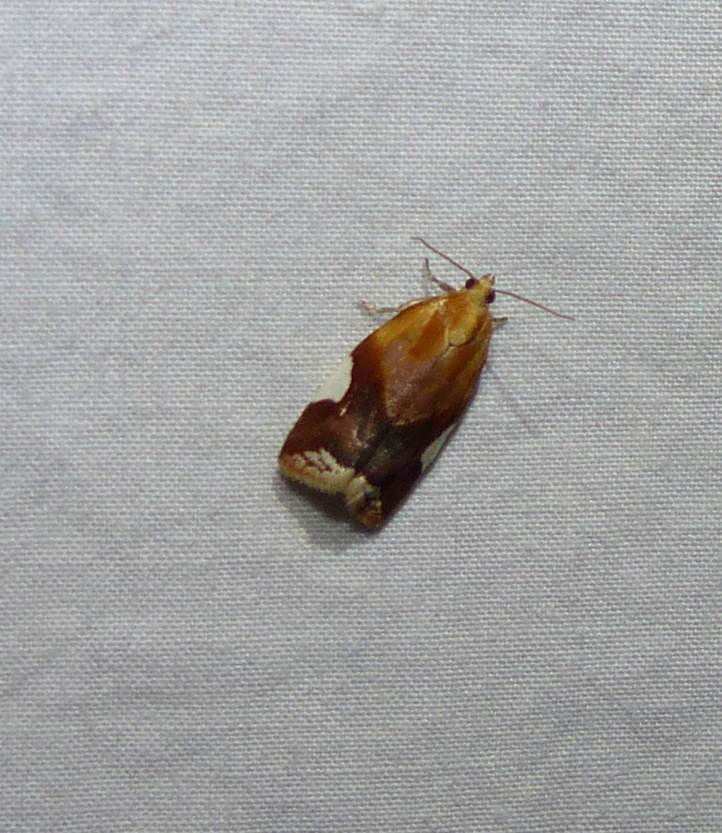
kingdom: Animalia
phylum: Arthropoda
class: Insecta
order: Lepidoptera
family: Tortricidae
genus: Clepsis
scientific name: Clepsis persicana
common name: White triangle tortrix
